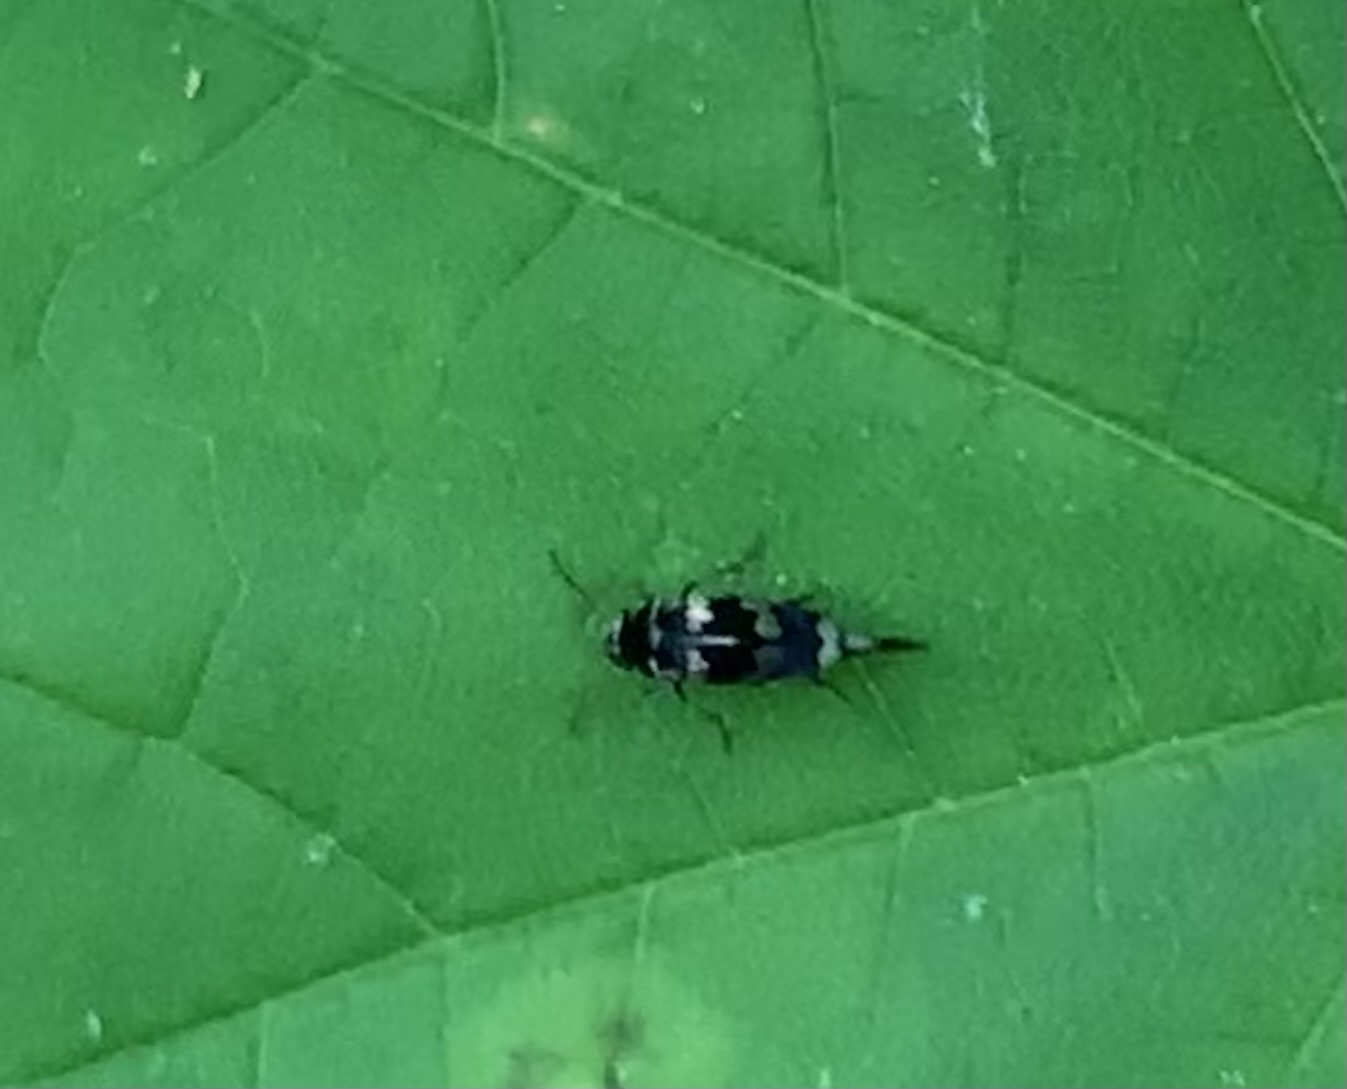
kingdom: Animalia
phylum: Arthropoda
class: Insecta
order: Coleoptera
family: Mordellidae
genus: Falsomordellistena
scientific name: Falsomordellistena pubescens
